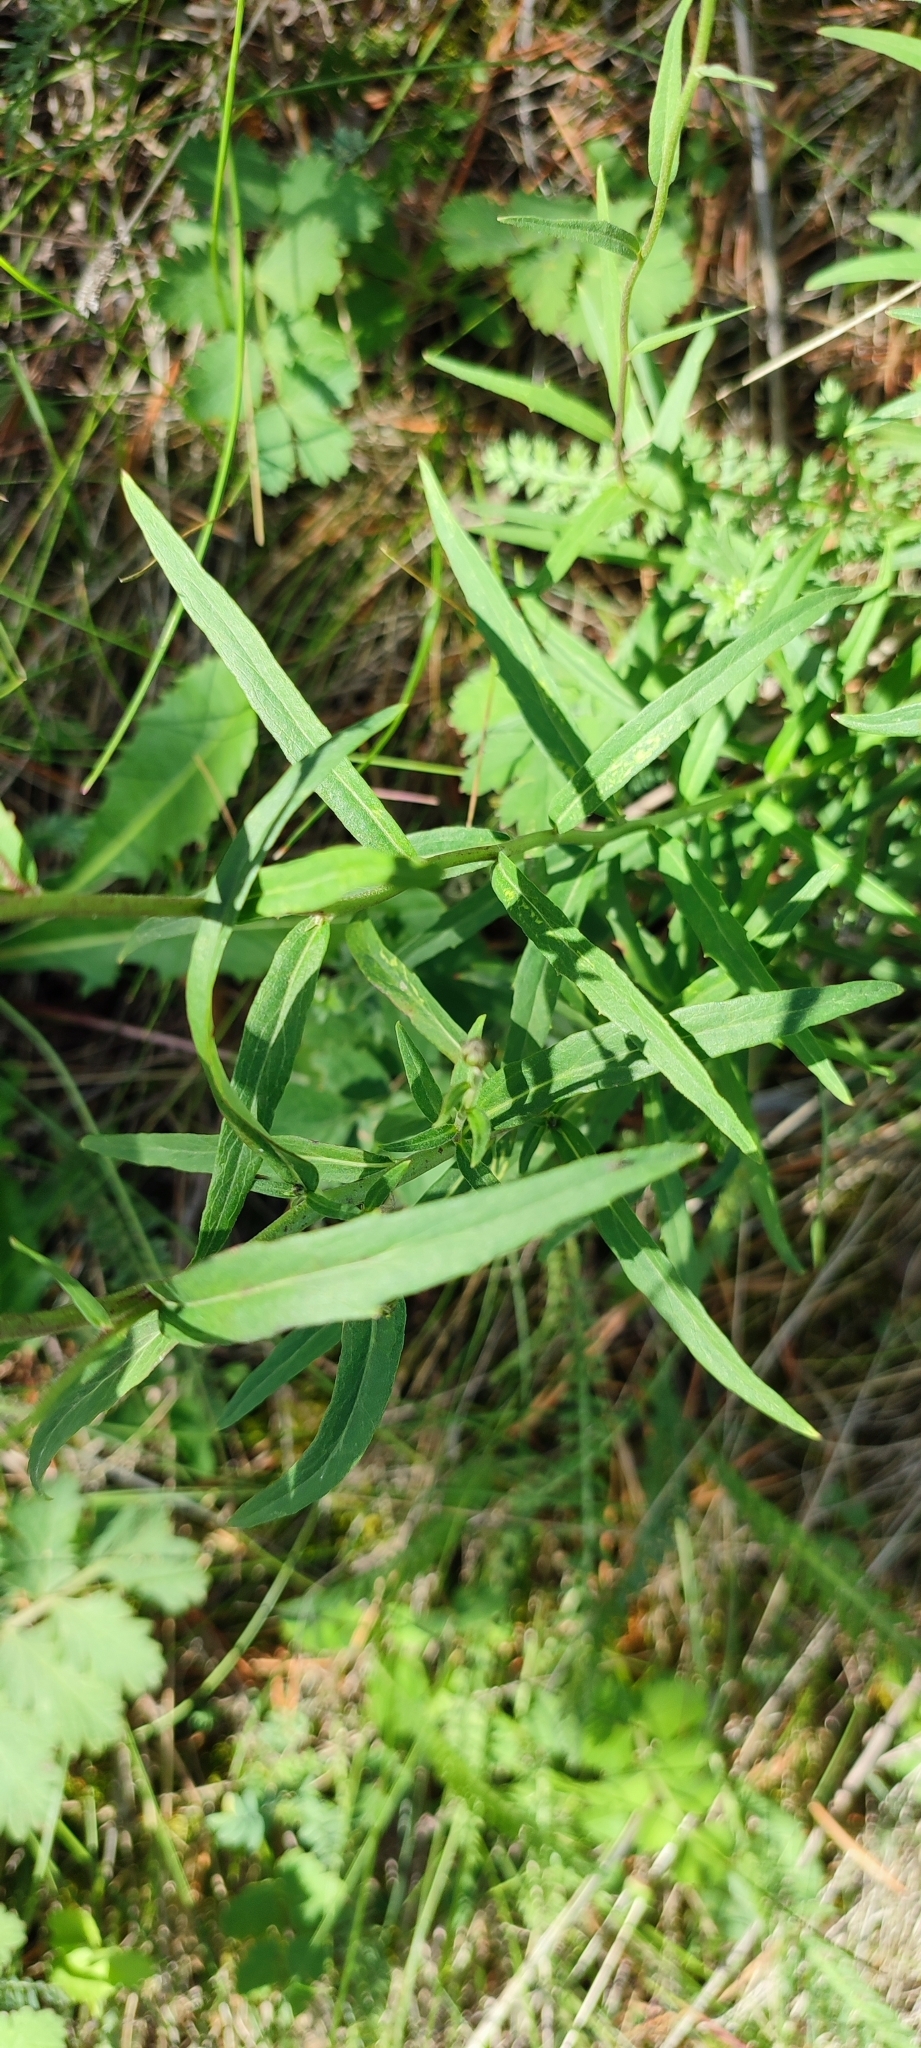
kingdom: Plantae
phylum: Tracheophyta
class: Magnoliopsida
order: Asterales
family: Asteraceae
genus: Hieracium
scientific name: Hieracium umbellatum
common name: Northern hawkweed
